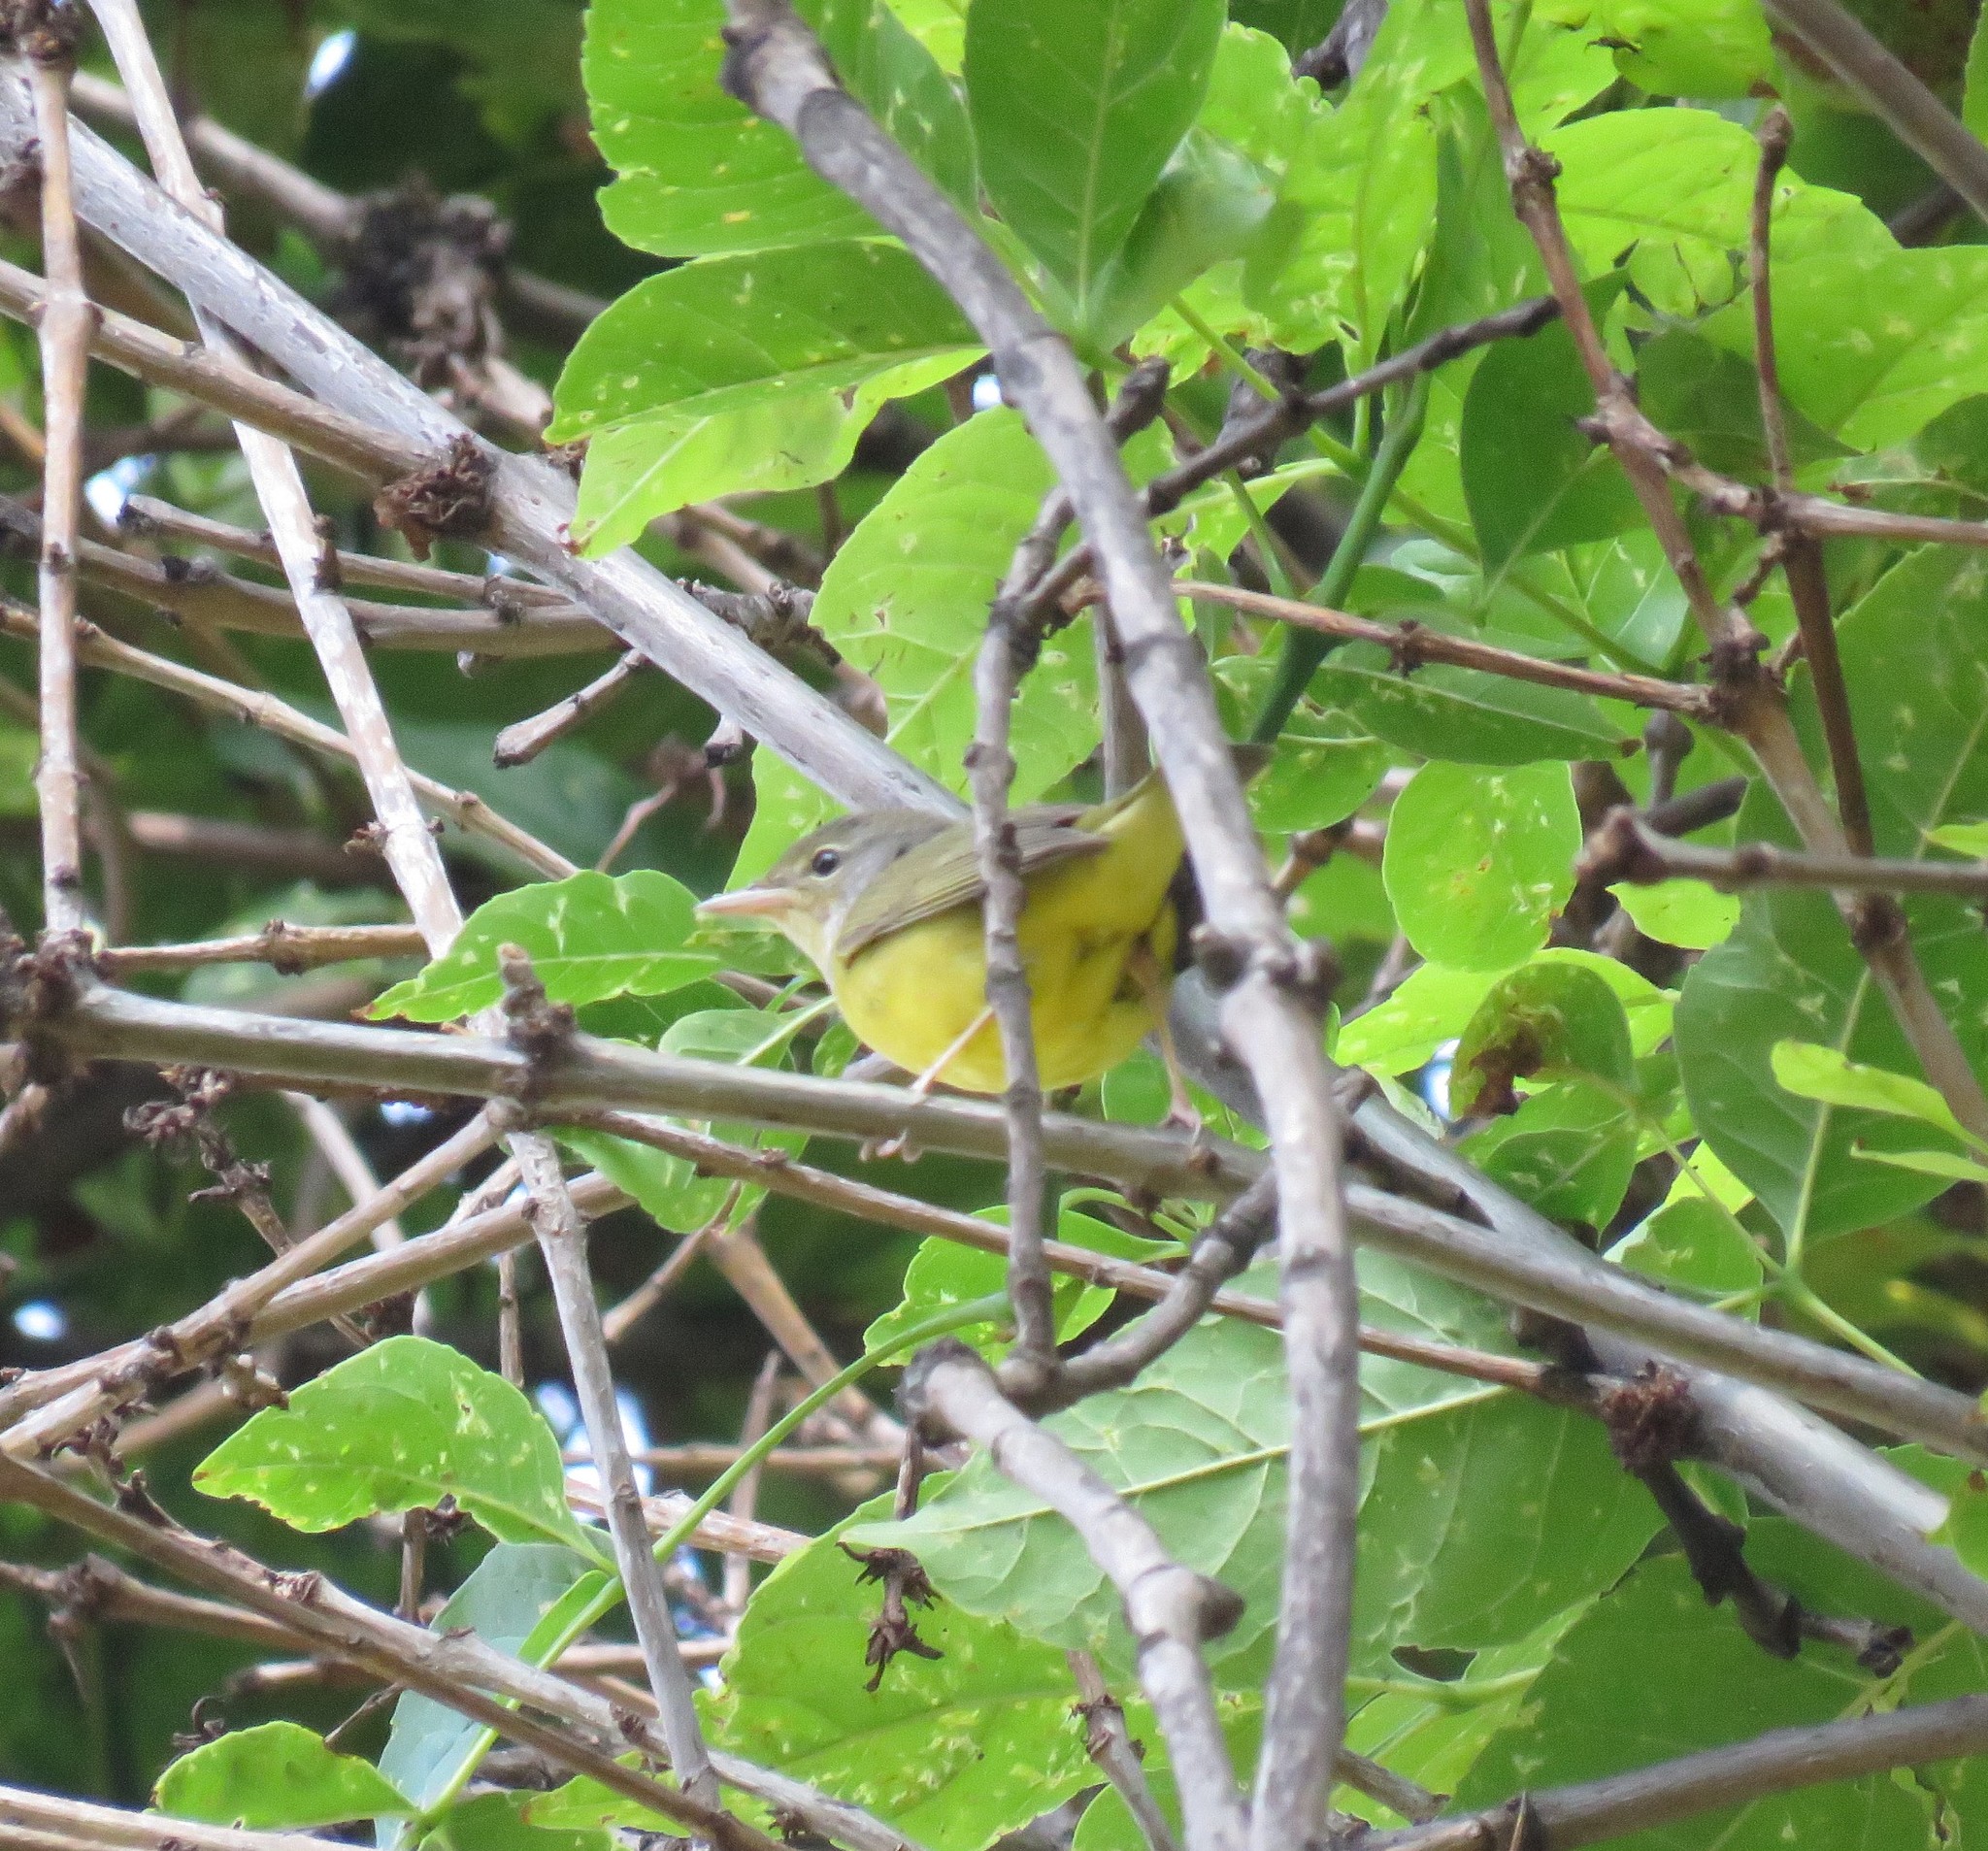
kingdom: Animalia
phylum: Chordata
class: Aves
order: Passeriformes
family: Parulidae
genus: Geothlypis
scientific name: Geothlypis philadelphia
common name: Mourning warbler
